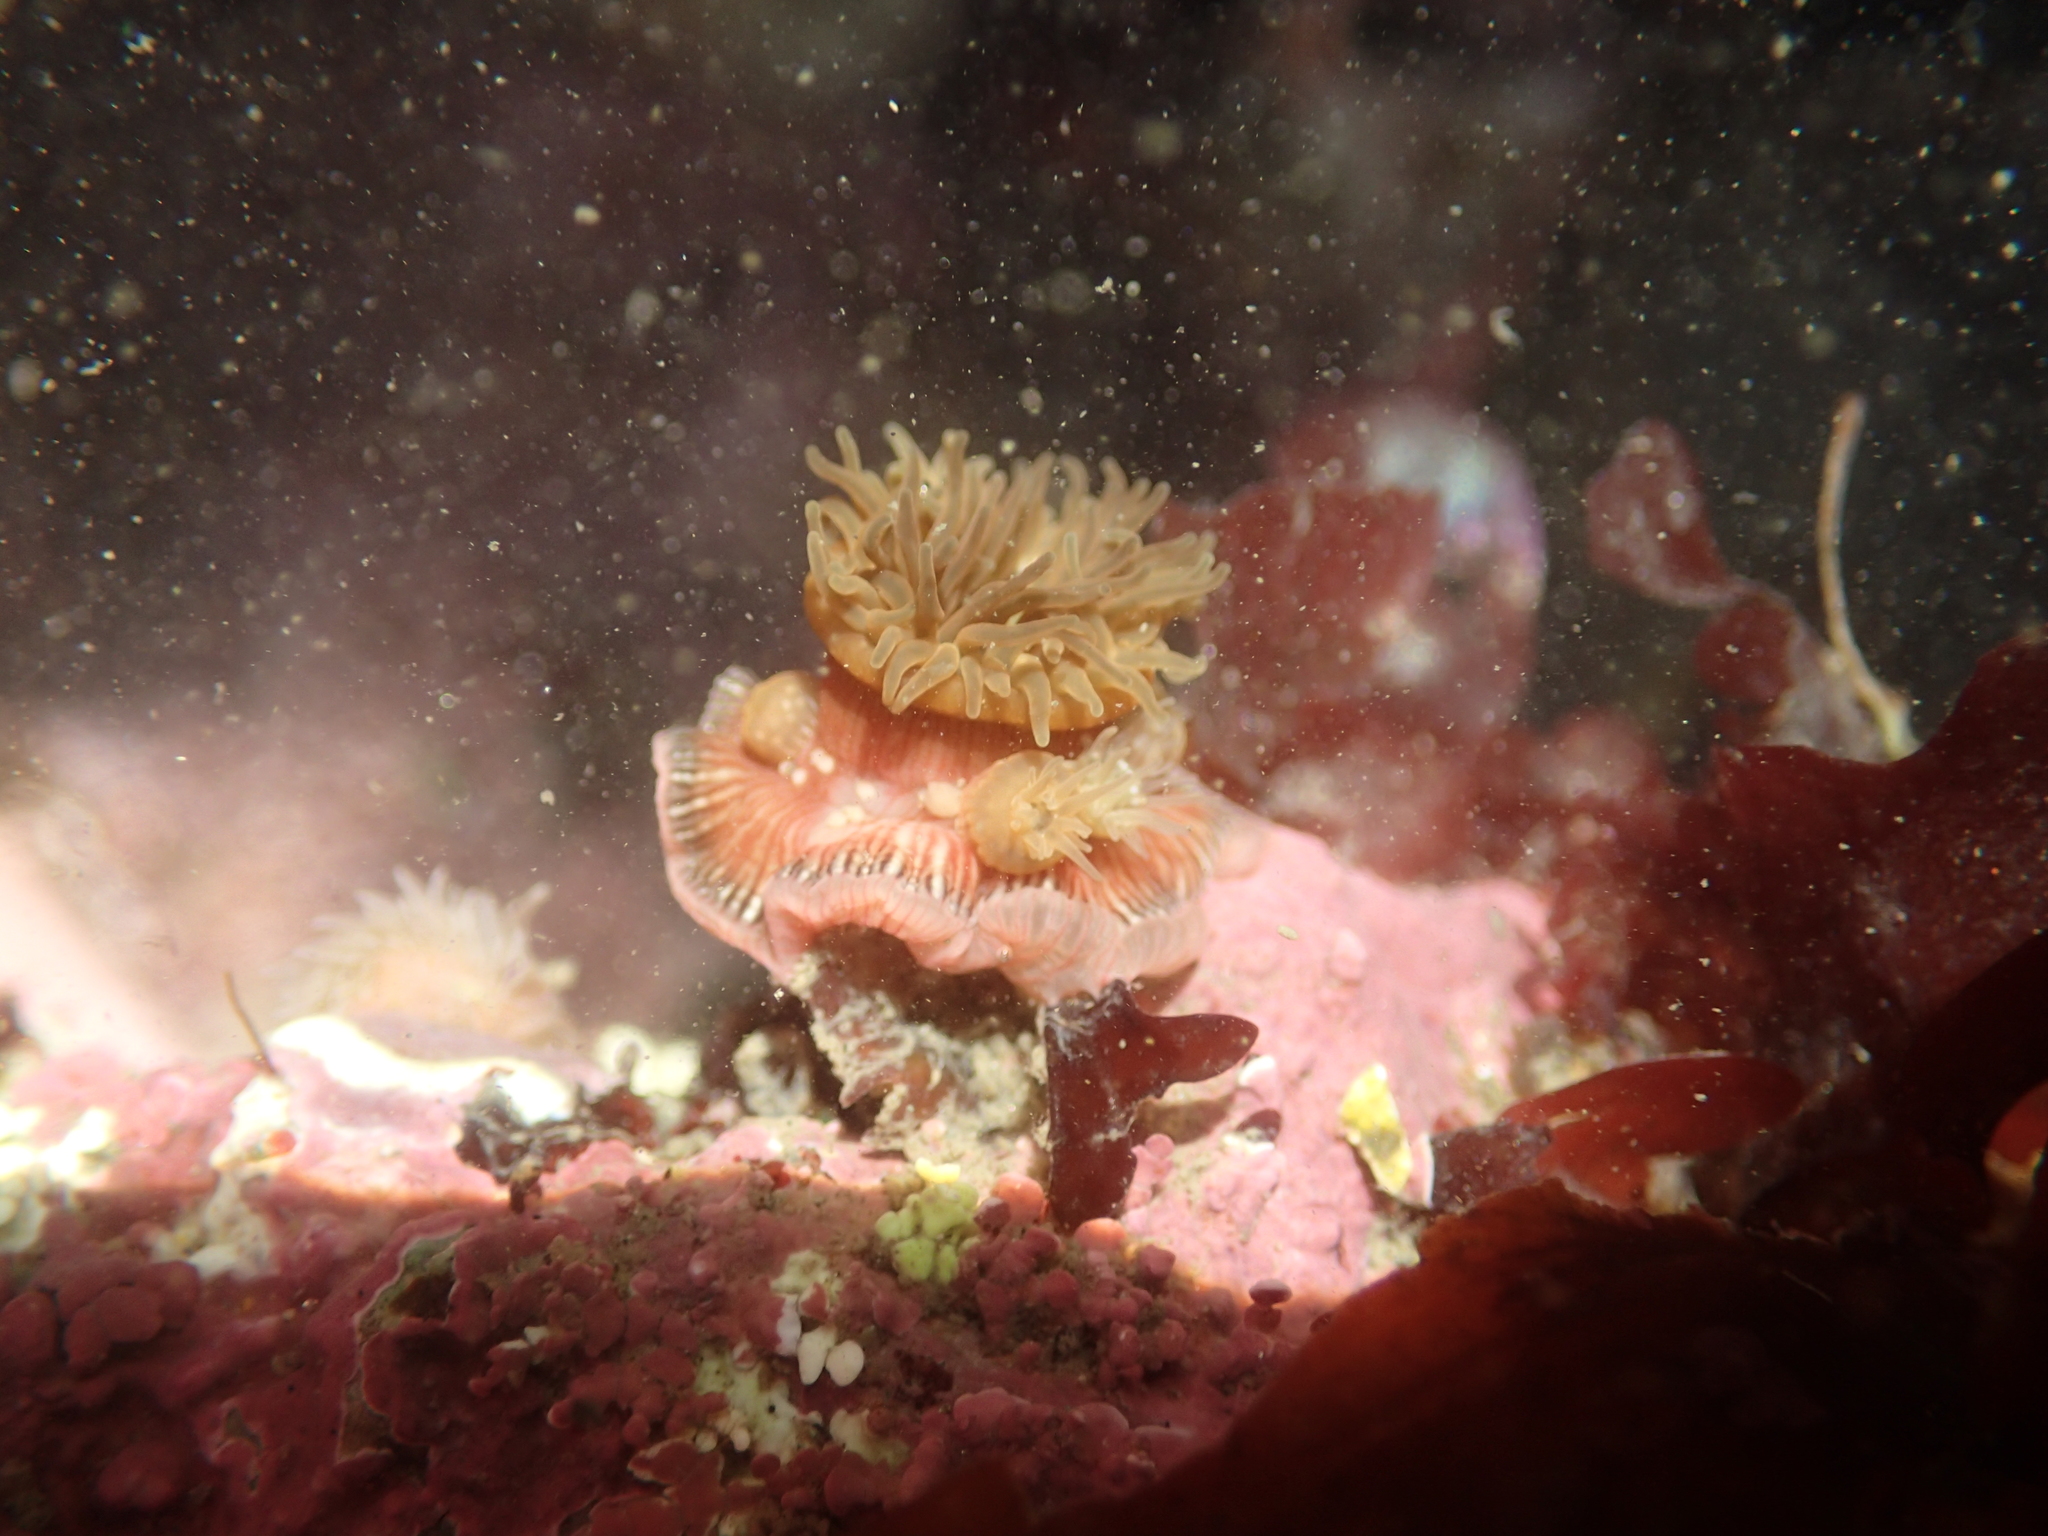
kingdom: Animalia
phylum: Cnidaria
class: Anthozoa
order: Actiniaria
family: Actiniidae
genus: Epiactis
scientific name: Epiactis prolifera
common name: Brooding anemone
